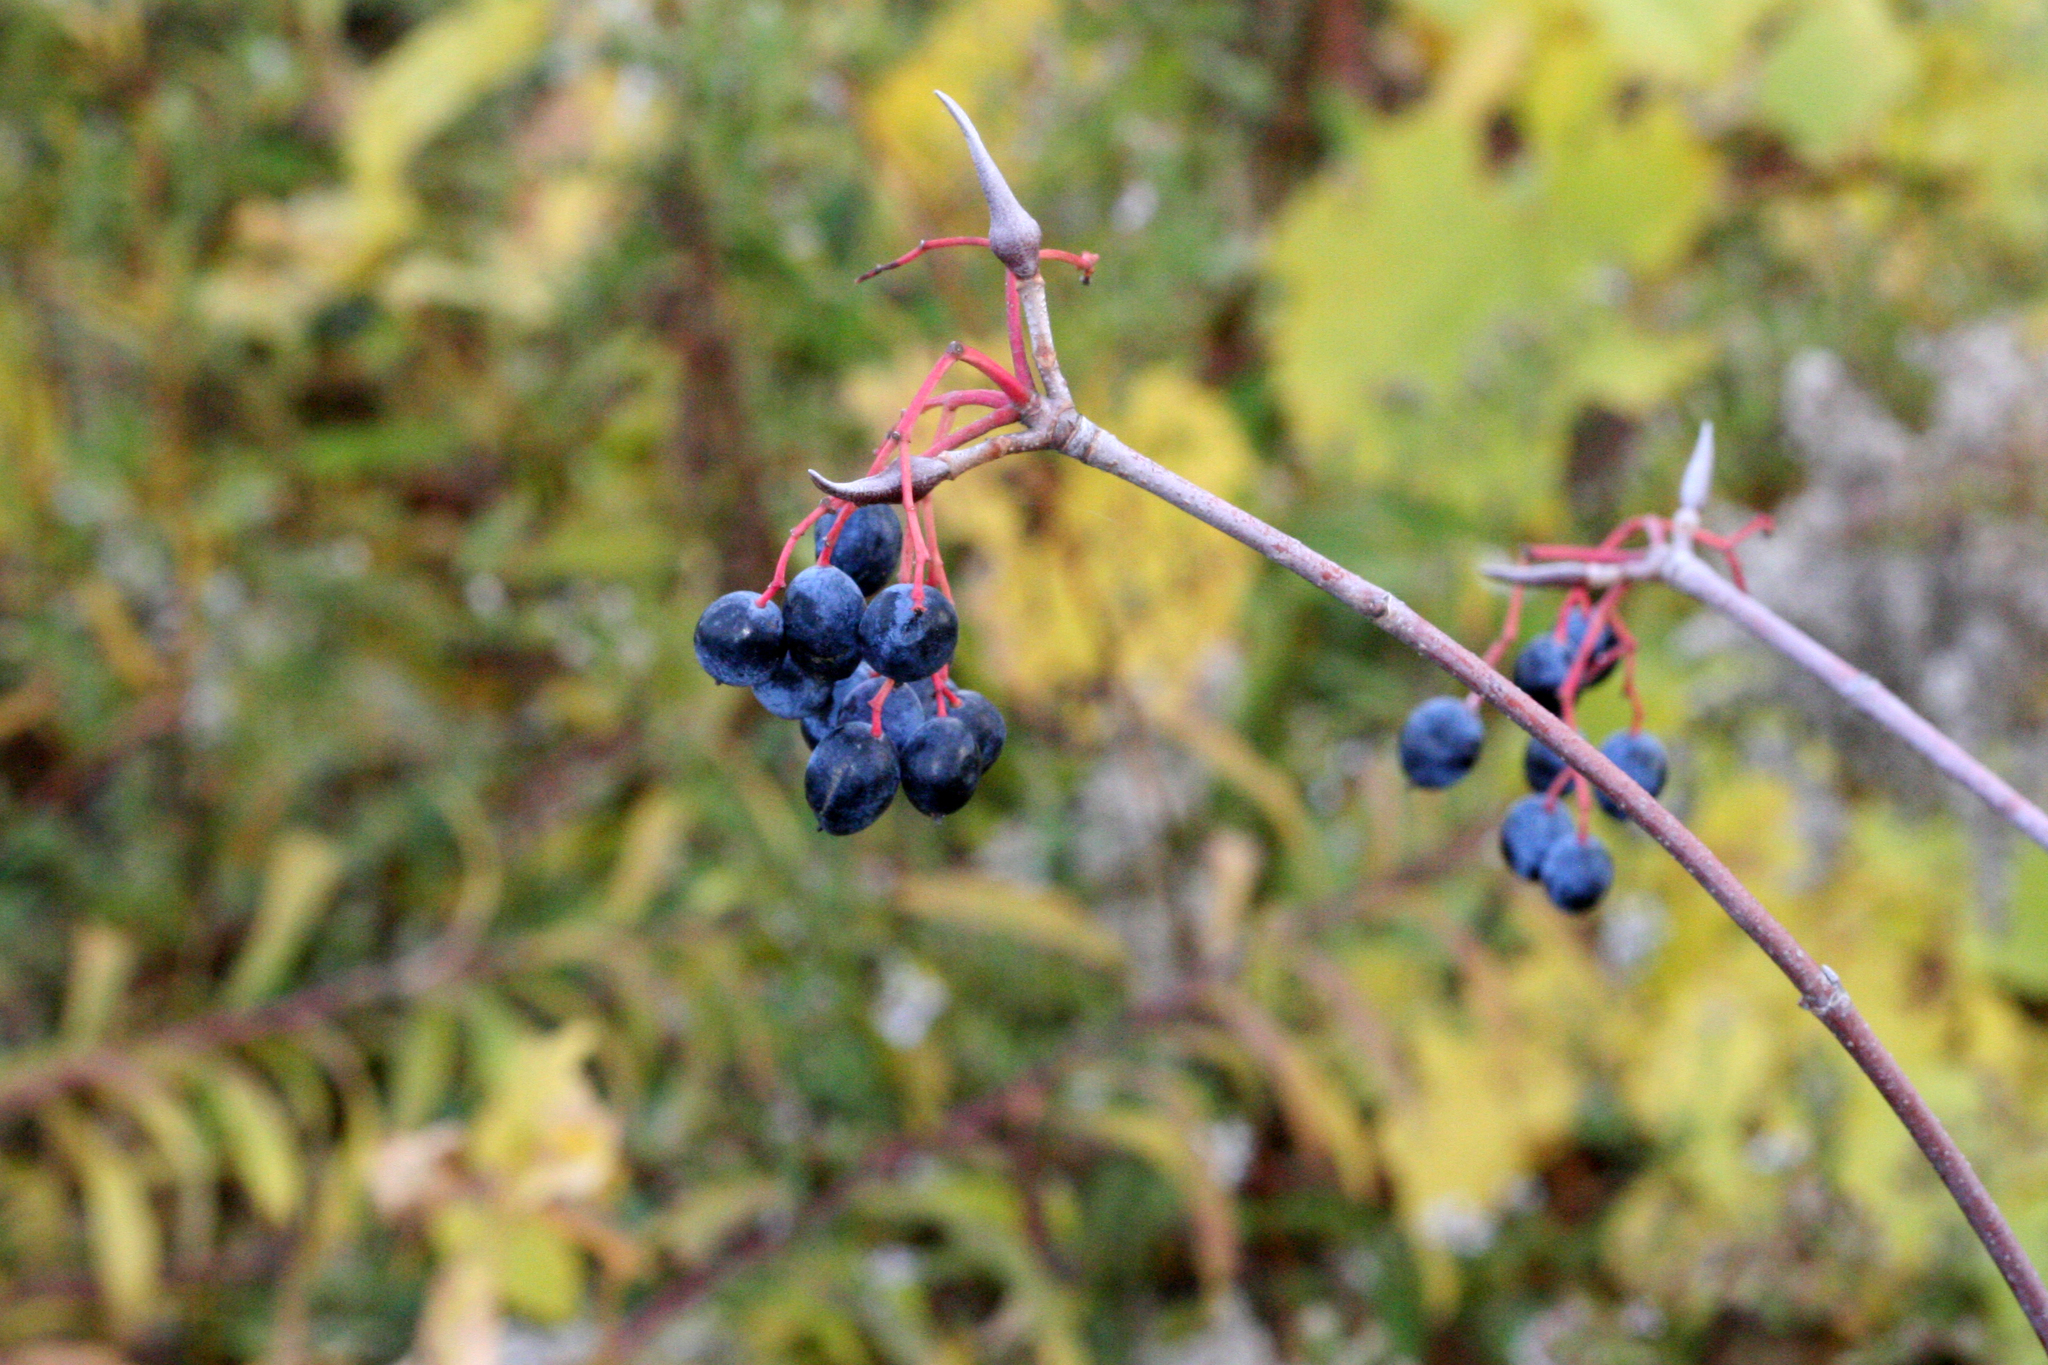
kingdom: Plantae
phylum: Tracheophyta
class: Magnoliopsida
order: Dipsacales
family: Viburnaceae
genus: Viburnum
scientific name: Viburnum lentago
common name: Black haw
